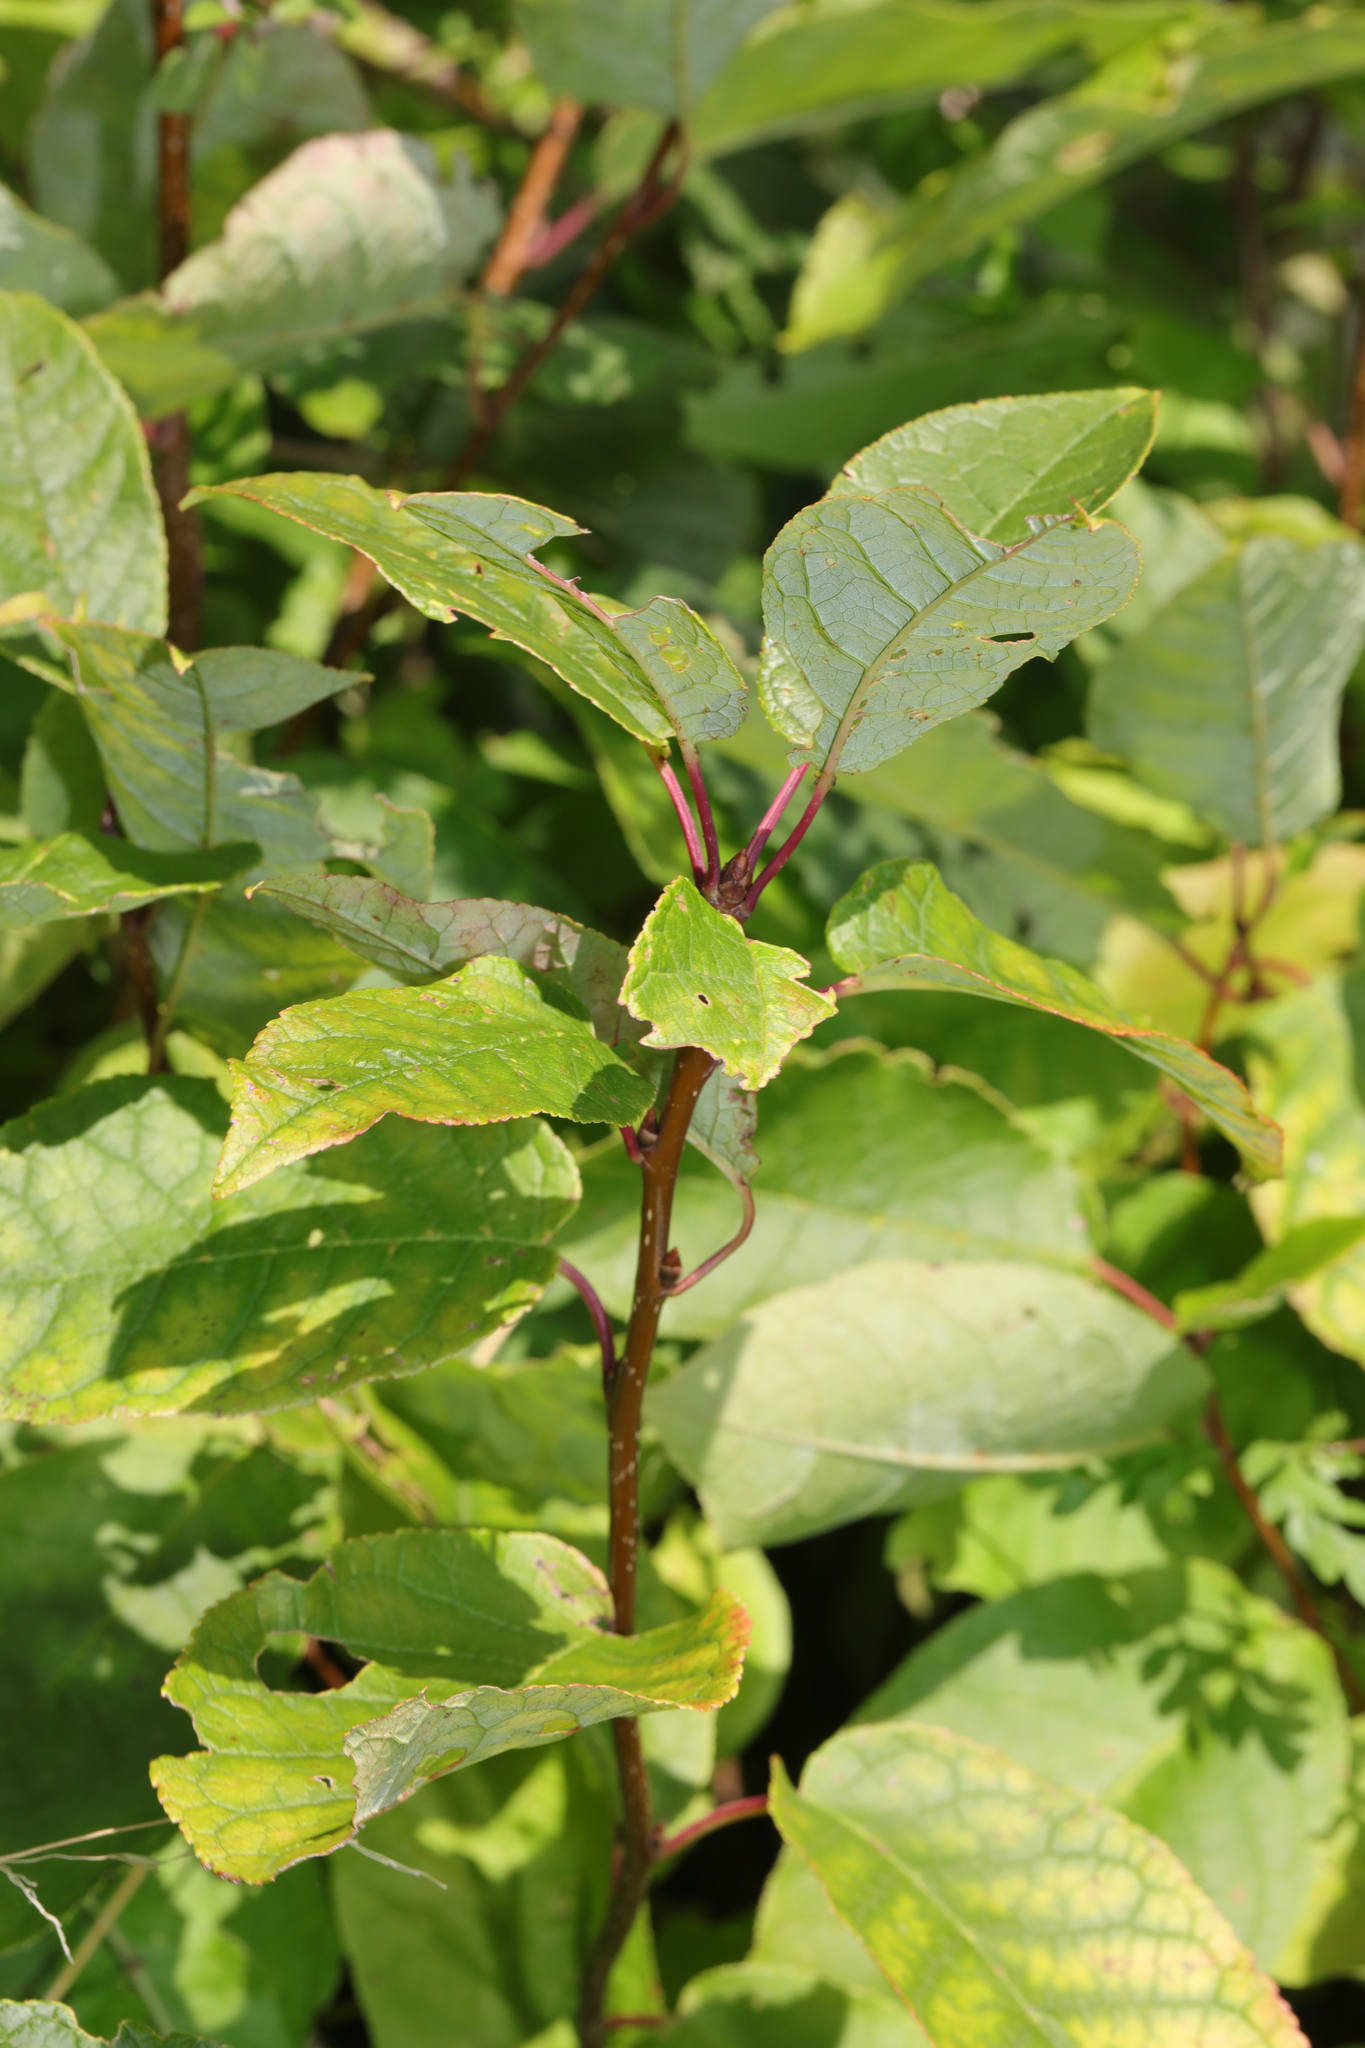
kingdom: Plantae
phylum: Tracheophyta
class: Magnoliopsida
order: Rosales
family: Rosaceae
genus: Prunus
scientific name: Prunus padus
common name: Bird cherry
